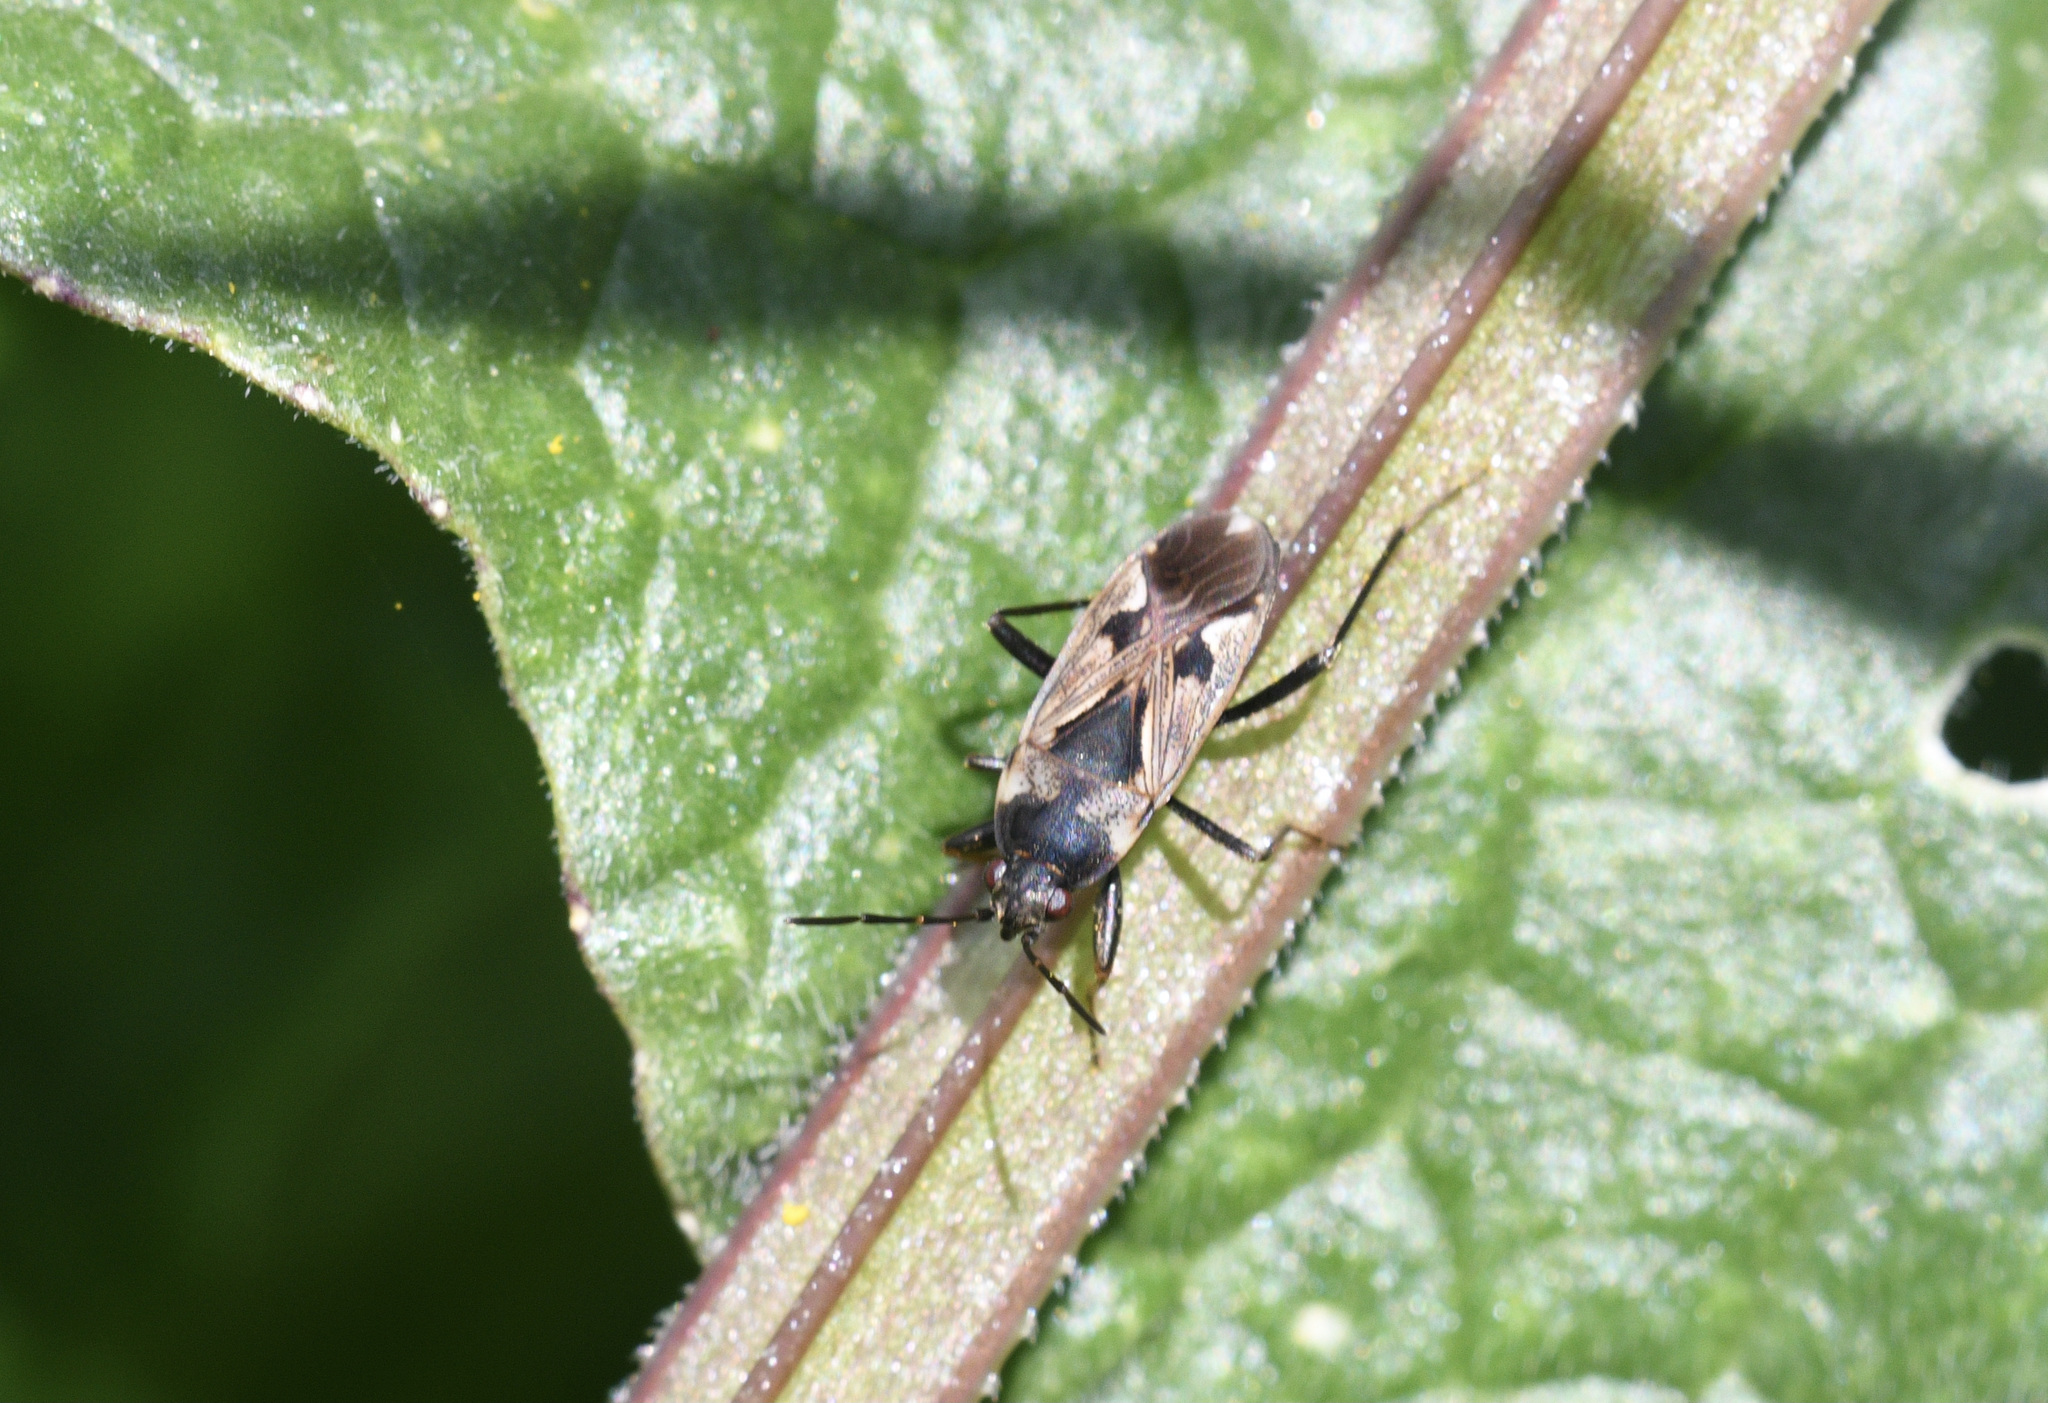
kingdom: Animalia
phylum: Arthropoda
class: Insecta
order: Hemiptera
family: Rhyparochromidae
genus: Rhyparochromus
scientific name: Rhyparochromus vulgaris
